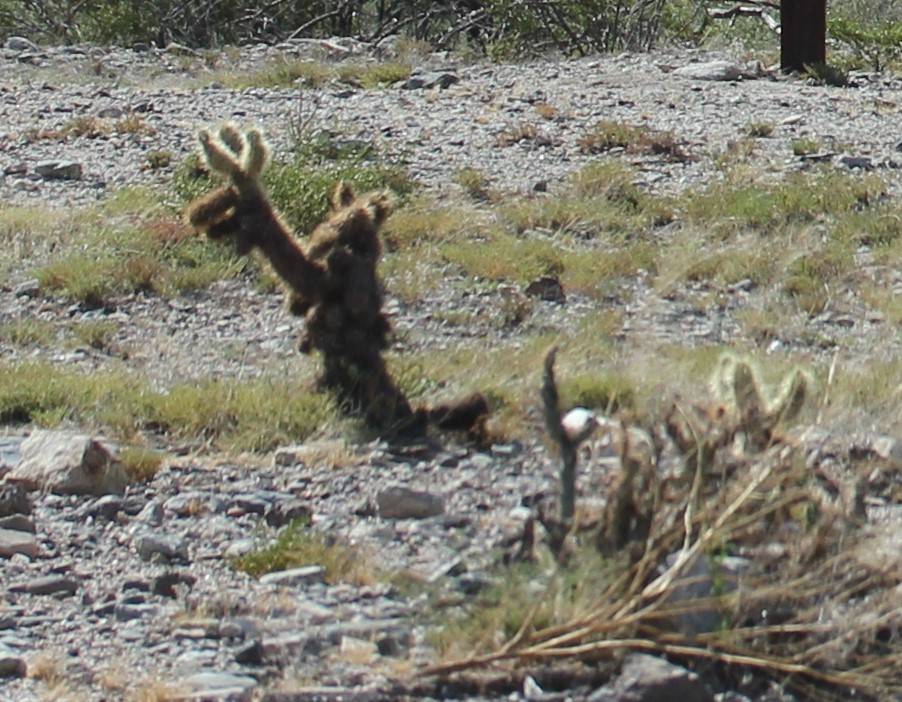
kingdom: Plantae
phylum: Tracheophyta
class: Magnoliopsida
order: Caryophyllales
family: Cactaceae
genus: Cylindropuntia
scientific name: Cylindropuntia fosbergii
